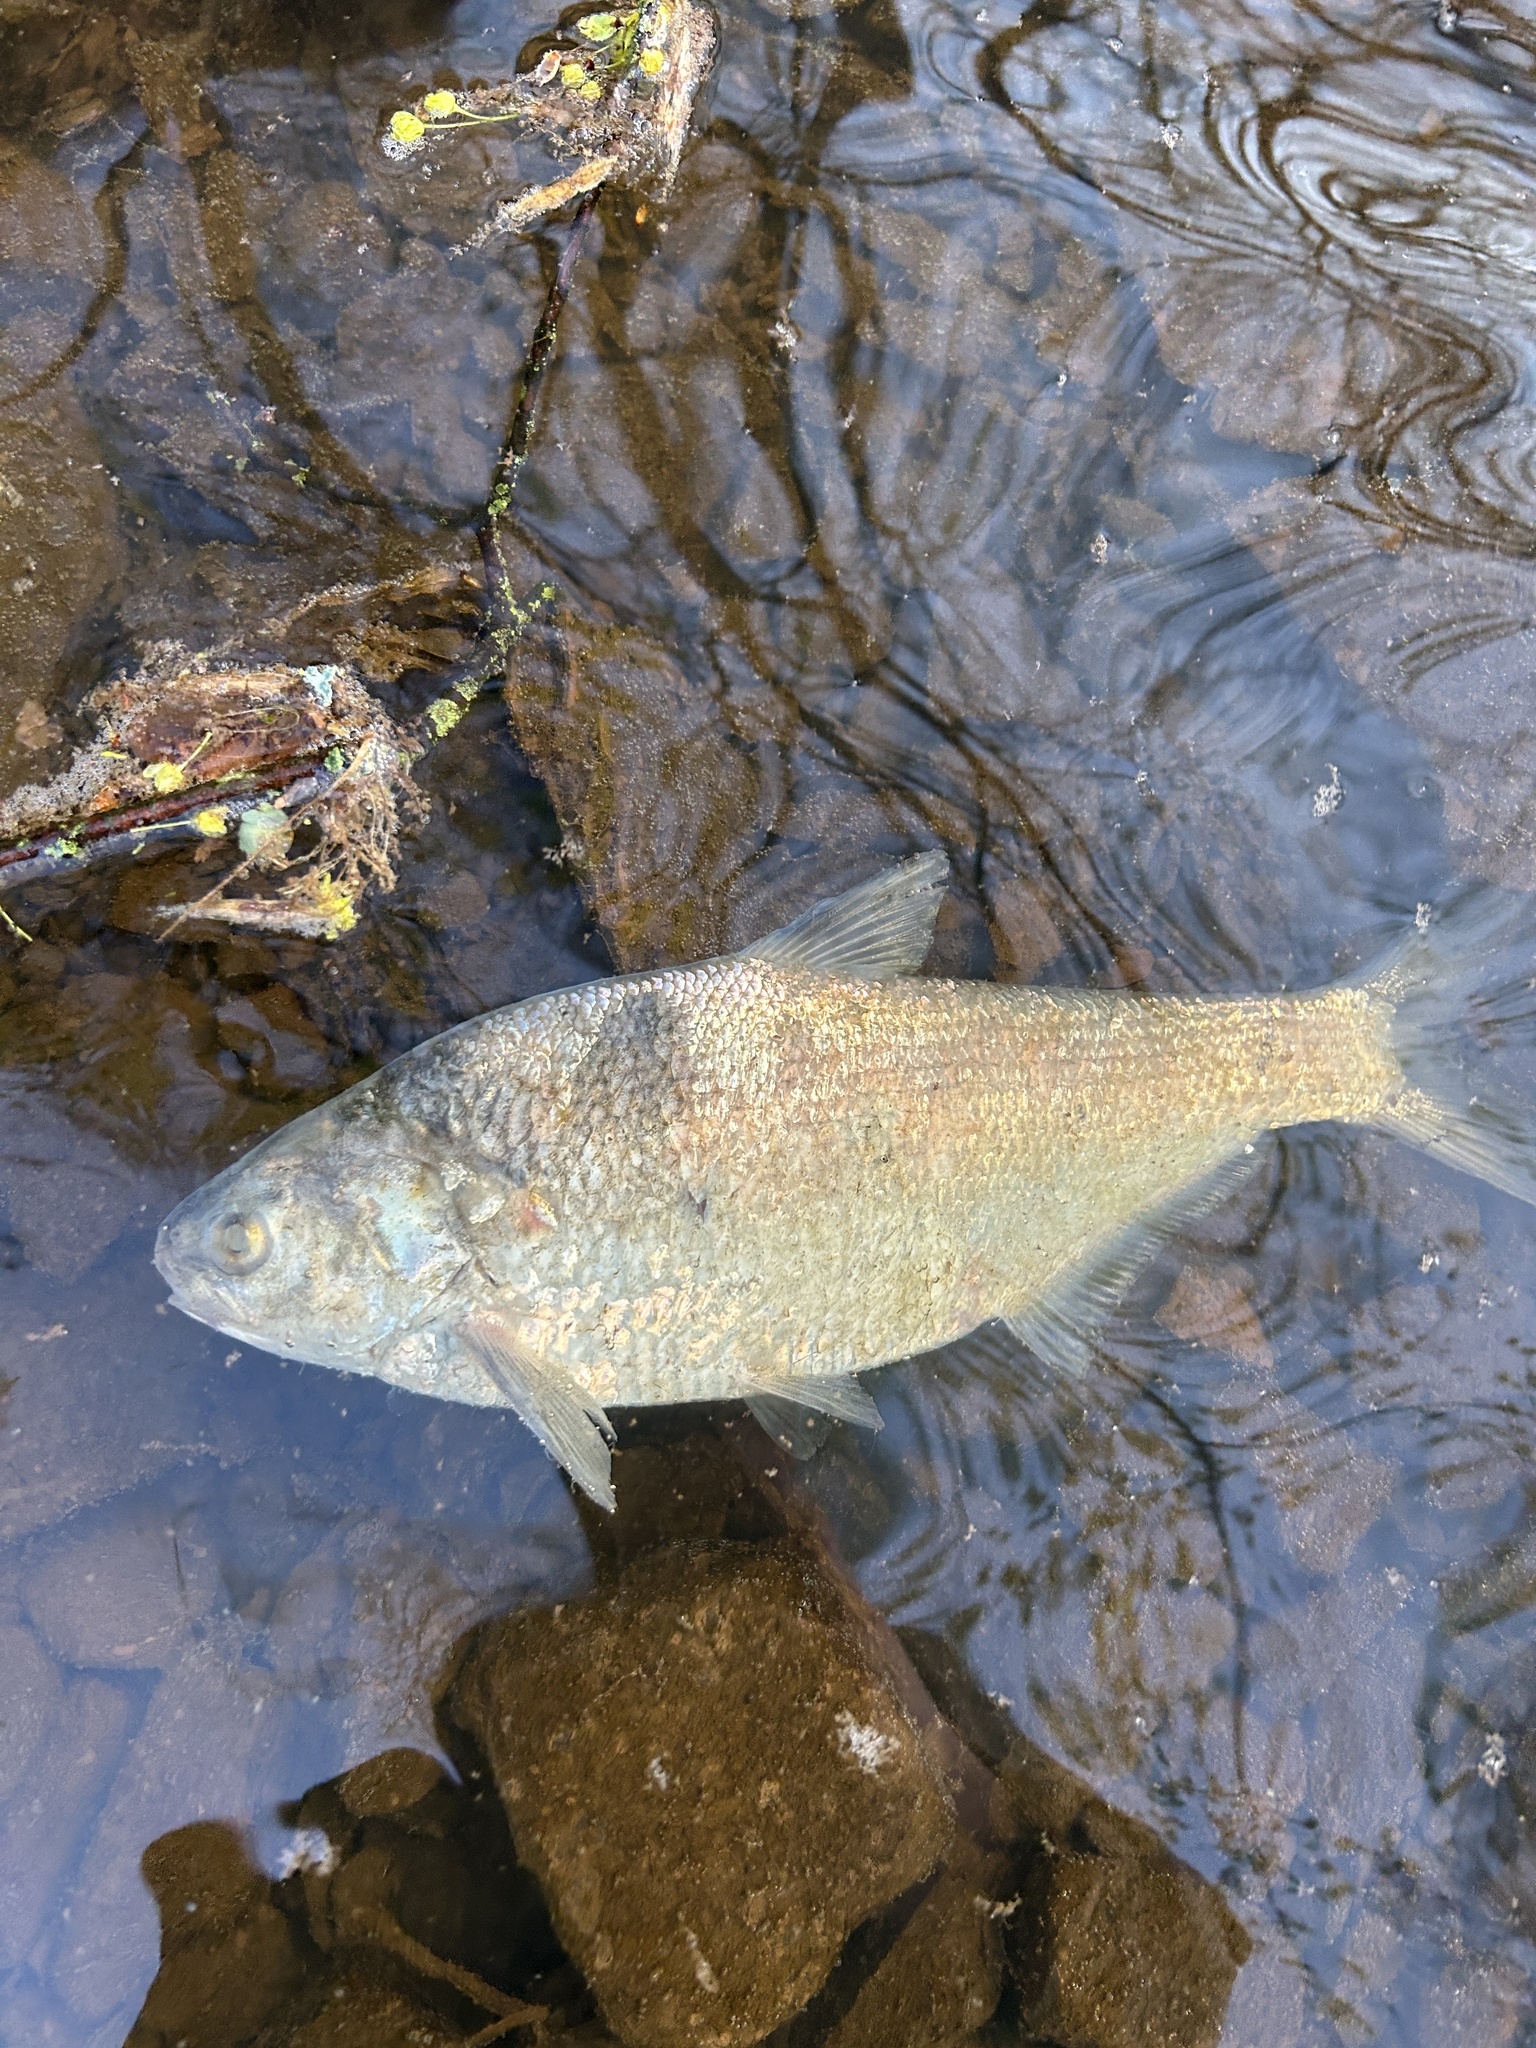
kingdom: Animalia
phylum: Chordata
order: Clupeiformes
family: Clupeidae
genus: Dorosoma
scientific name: Dorosoma cepedianum
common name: Gizzard shad
